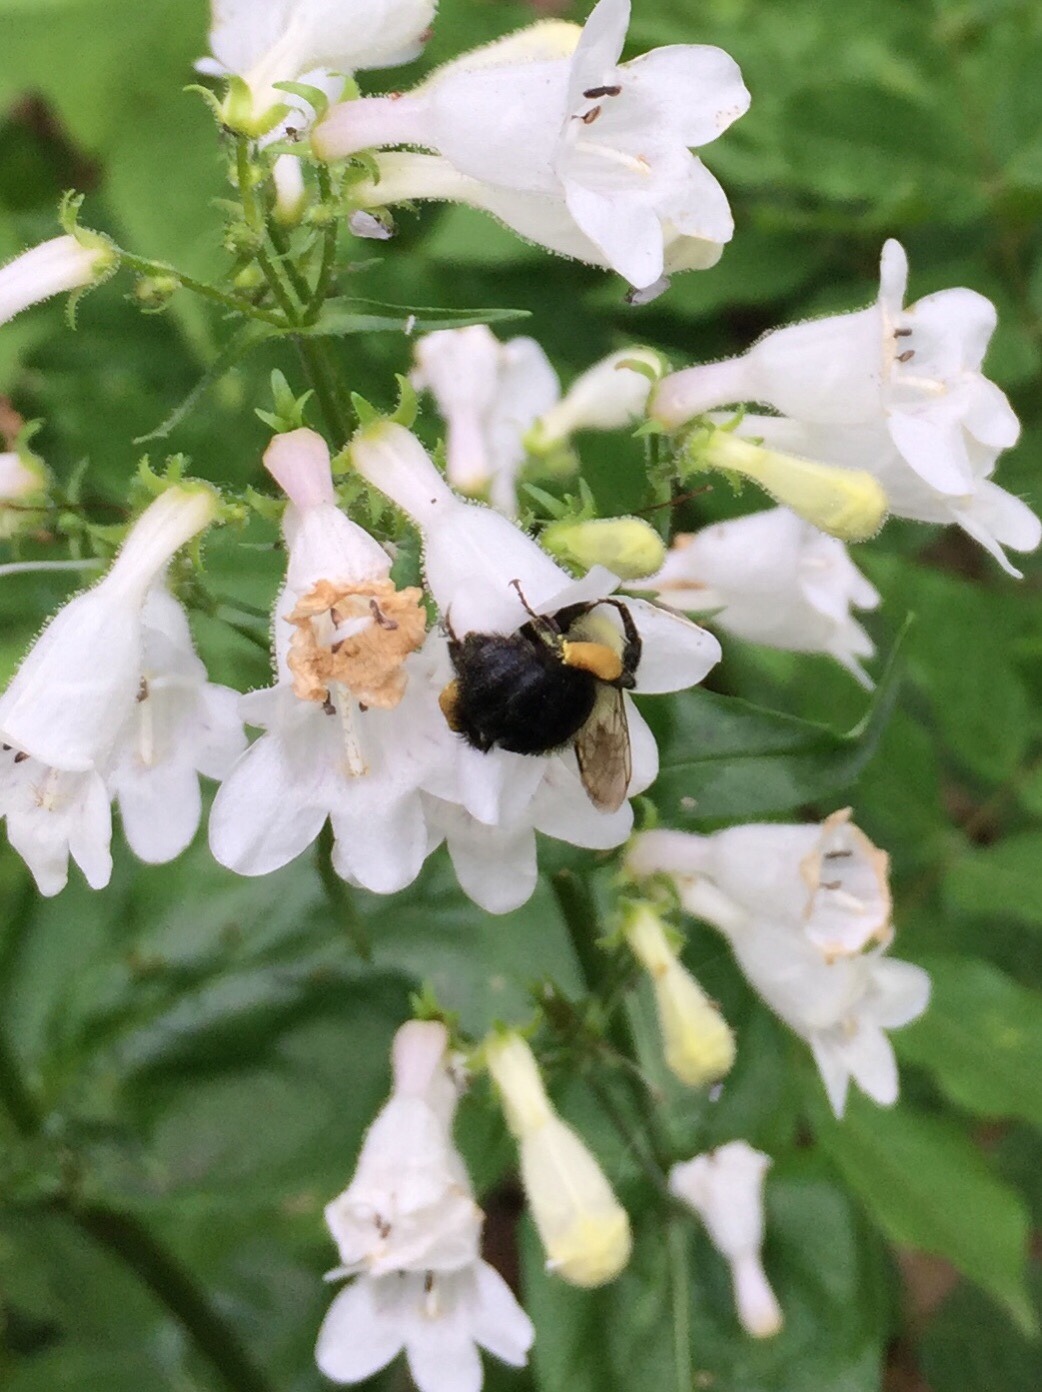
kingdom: Animalia
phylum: Arthropoda
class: Insecta
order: Hymenoptera
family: Apidae
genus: Bombus
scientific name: Bombus impatiens
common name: Common eastern bumble bee
